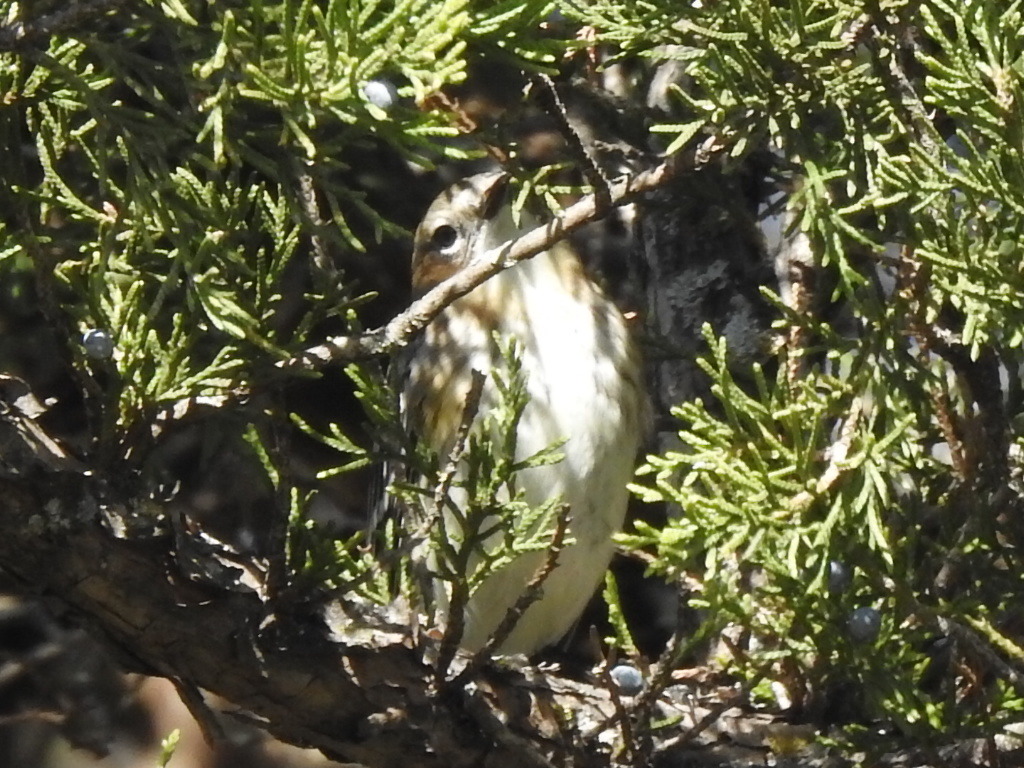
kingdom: Animalia
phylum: Chordata
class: Aves
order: Passeriformes
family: Parulidae
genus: Setophaga
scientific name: Setophaga coronata
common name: Myrtle warbler
